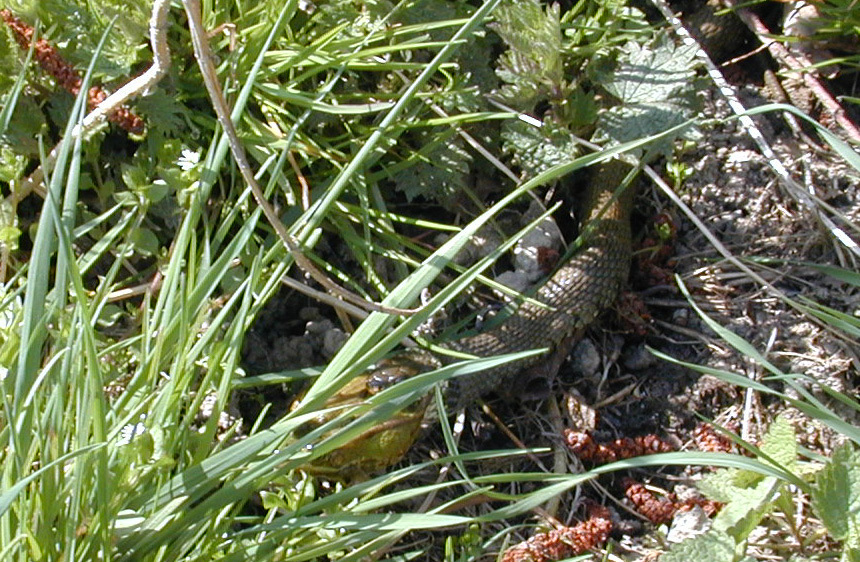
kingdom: Animalia
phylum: Chordata
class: Squamata
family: Colubridae
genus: Natrix
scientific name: Natrix helvetica
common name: Banded grass snake
